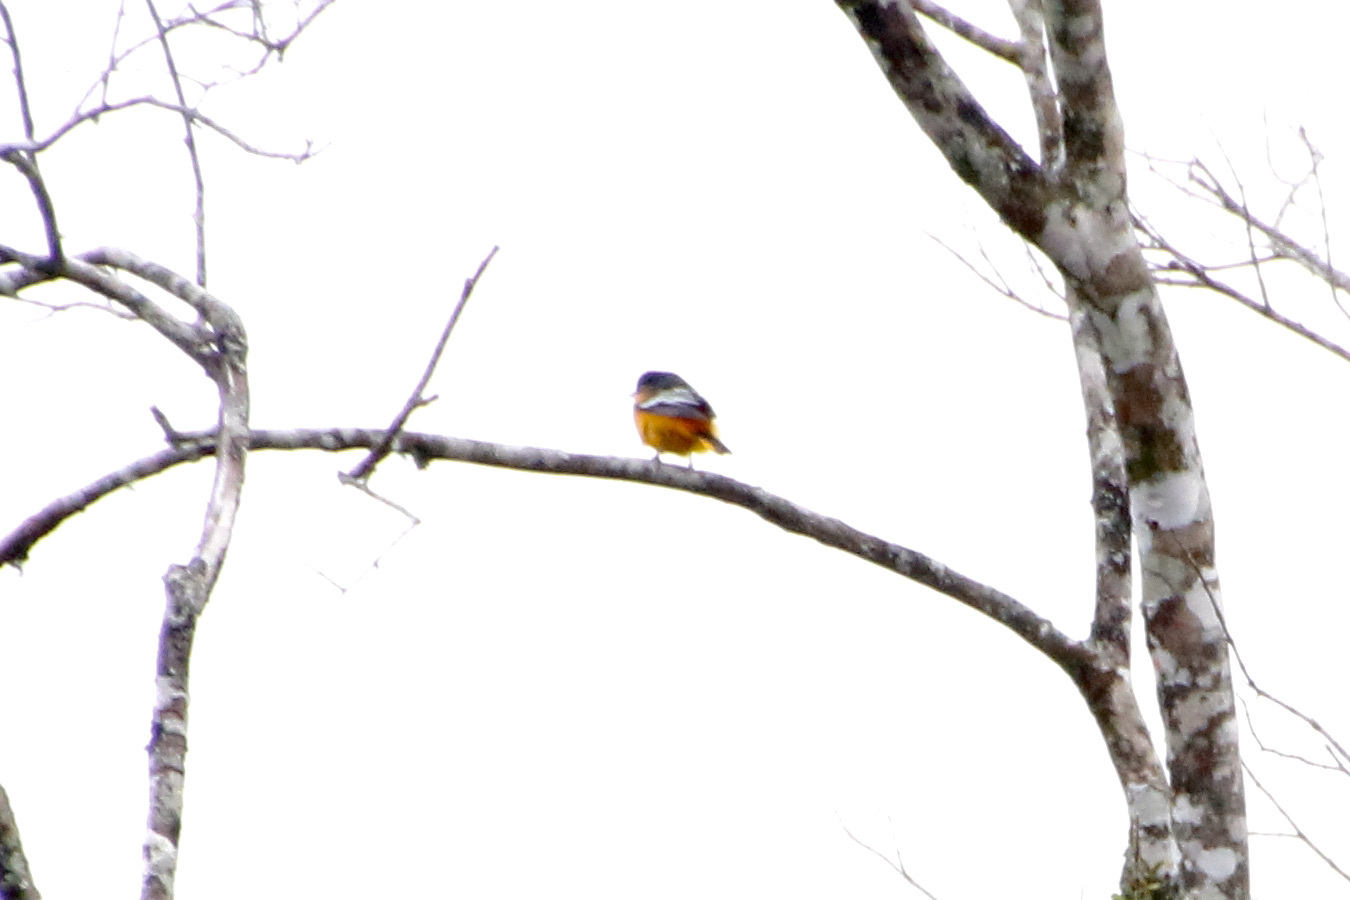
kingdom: Animalia
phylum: Chordata
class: Aves
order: Passeriformes
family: Icteridae
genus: Icterus
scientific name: Icterus galbula
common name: Baltimore oriole
